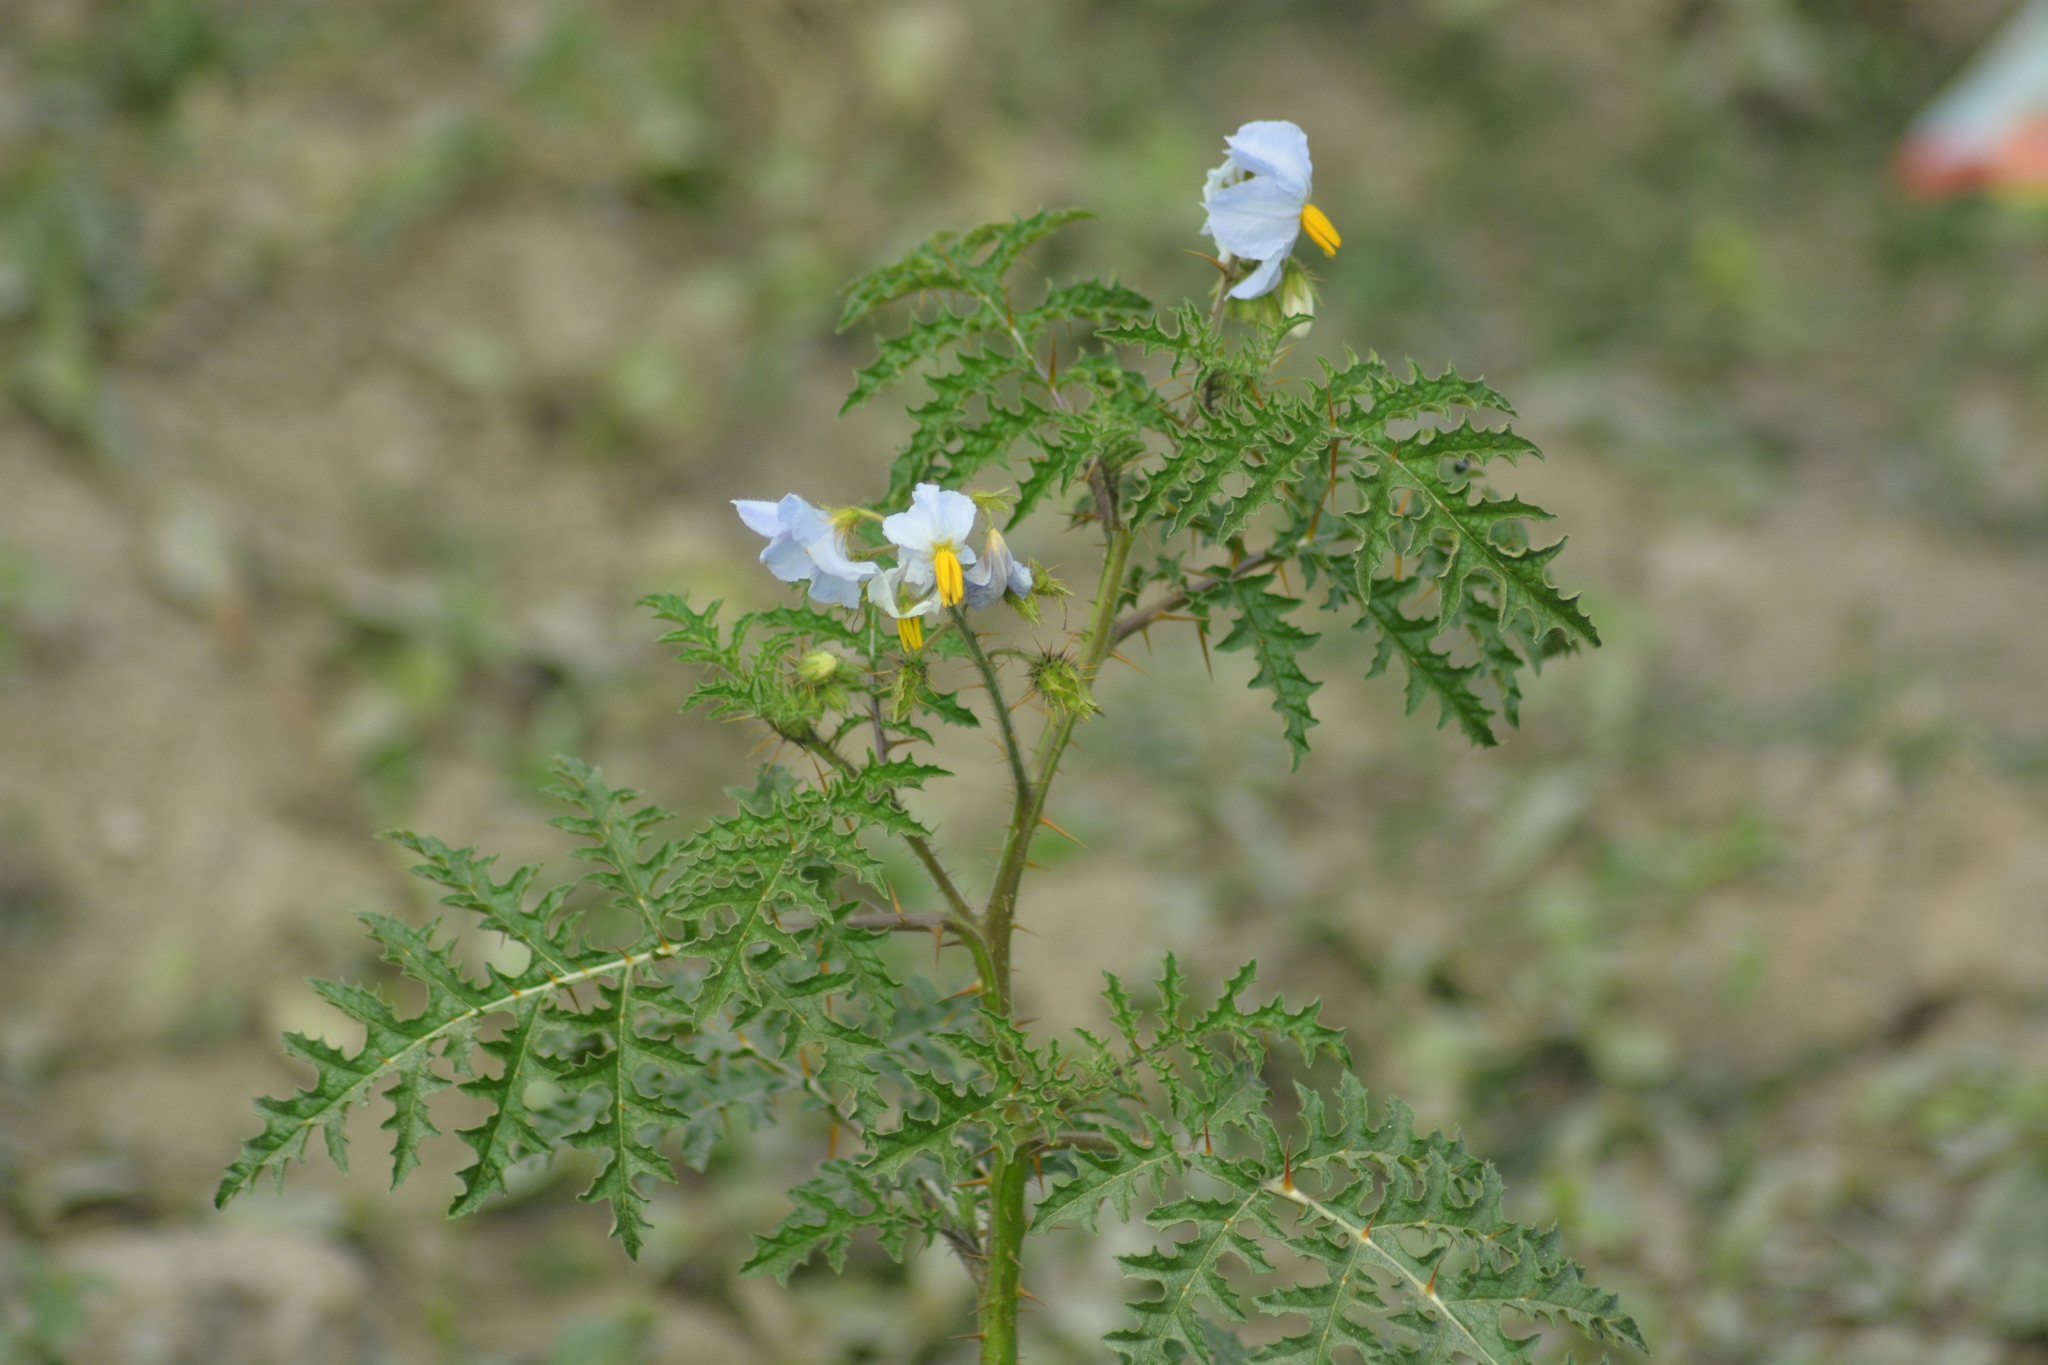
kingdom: Plantae
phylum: Tracheophyta
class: Magnoliopsida
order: Solanales
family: Solanaceae
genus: Solanum
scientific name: Solanum sisymbriifolium
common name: Red buffalo-bur
